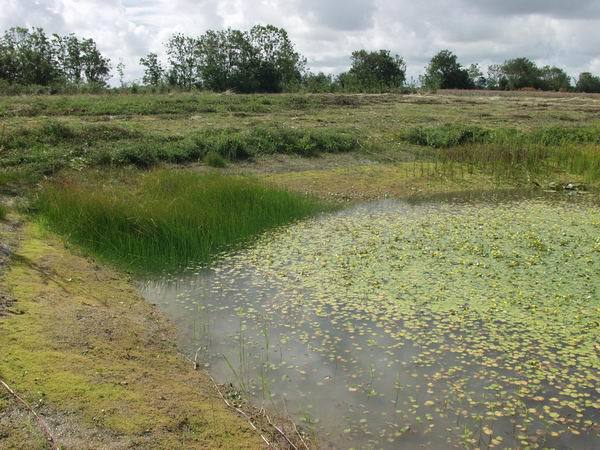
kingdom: Plantae
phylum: Tracheophyta
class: Magnoliopsida
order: Saxifragales
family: Crassulaceae
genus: Crassula
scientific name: Crassula helmsii
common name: New zealand pigmyweed
